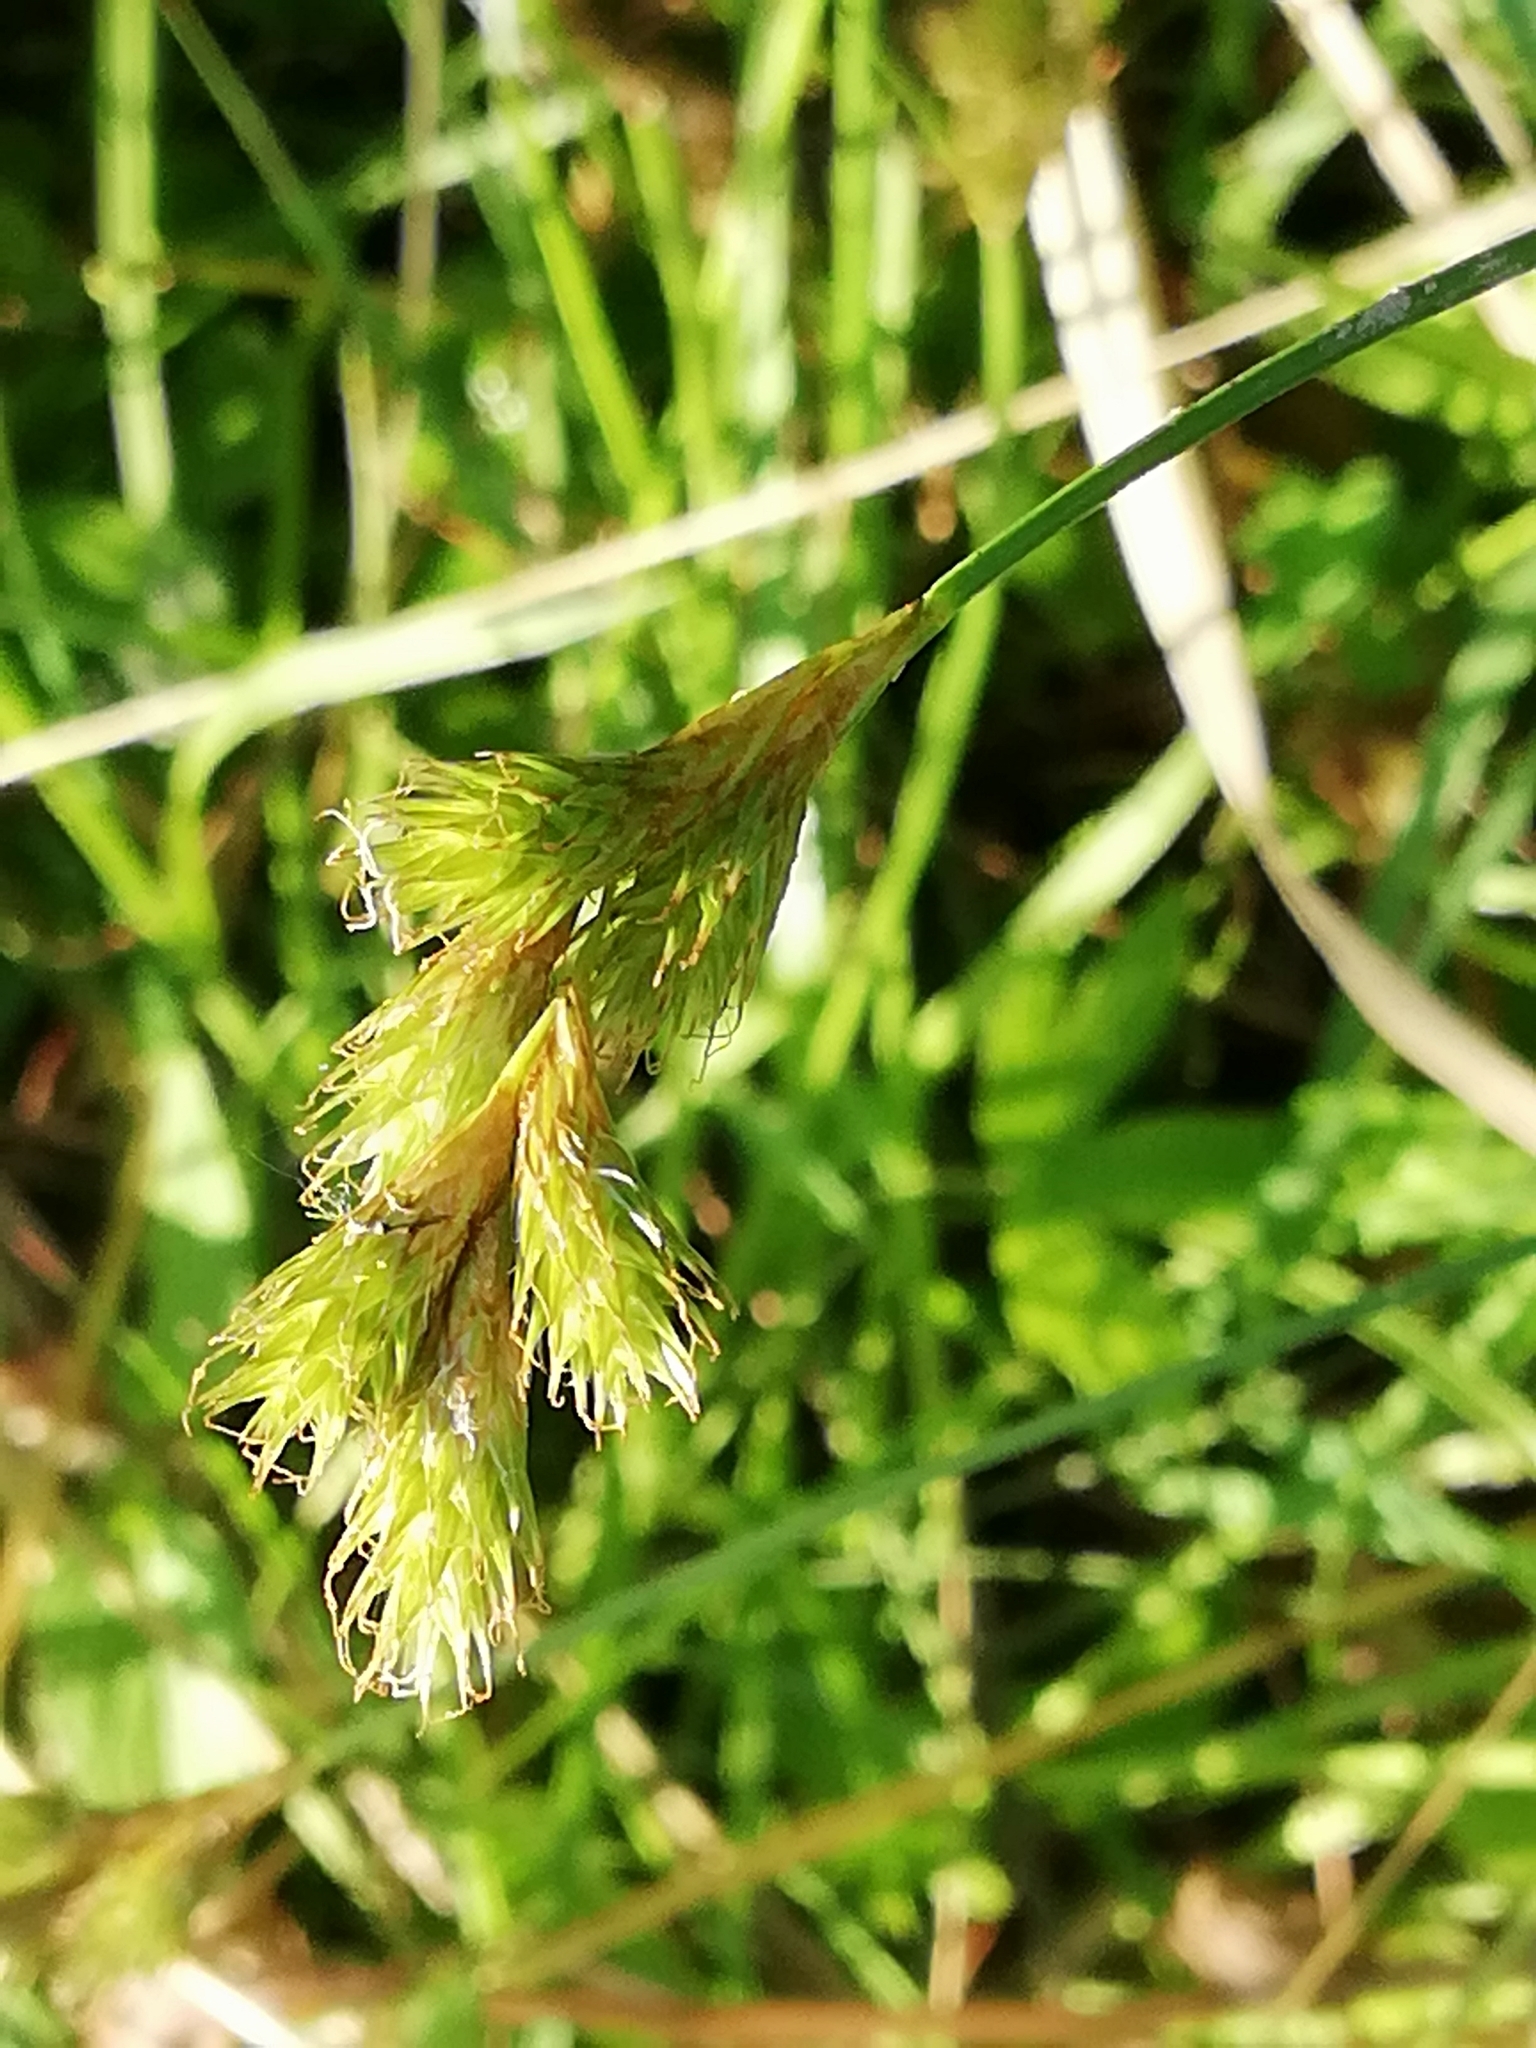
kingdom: Plantae
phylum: Tracheophyta
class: Liliopsida
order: Poales
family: Cyperaceae
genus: Carex
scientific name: Carex leporina
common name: Oval sedge
